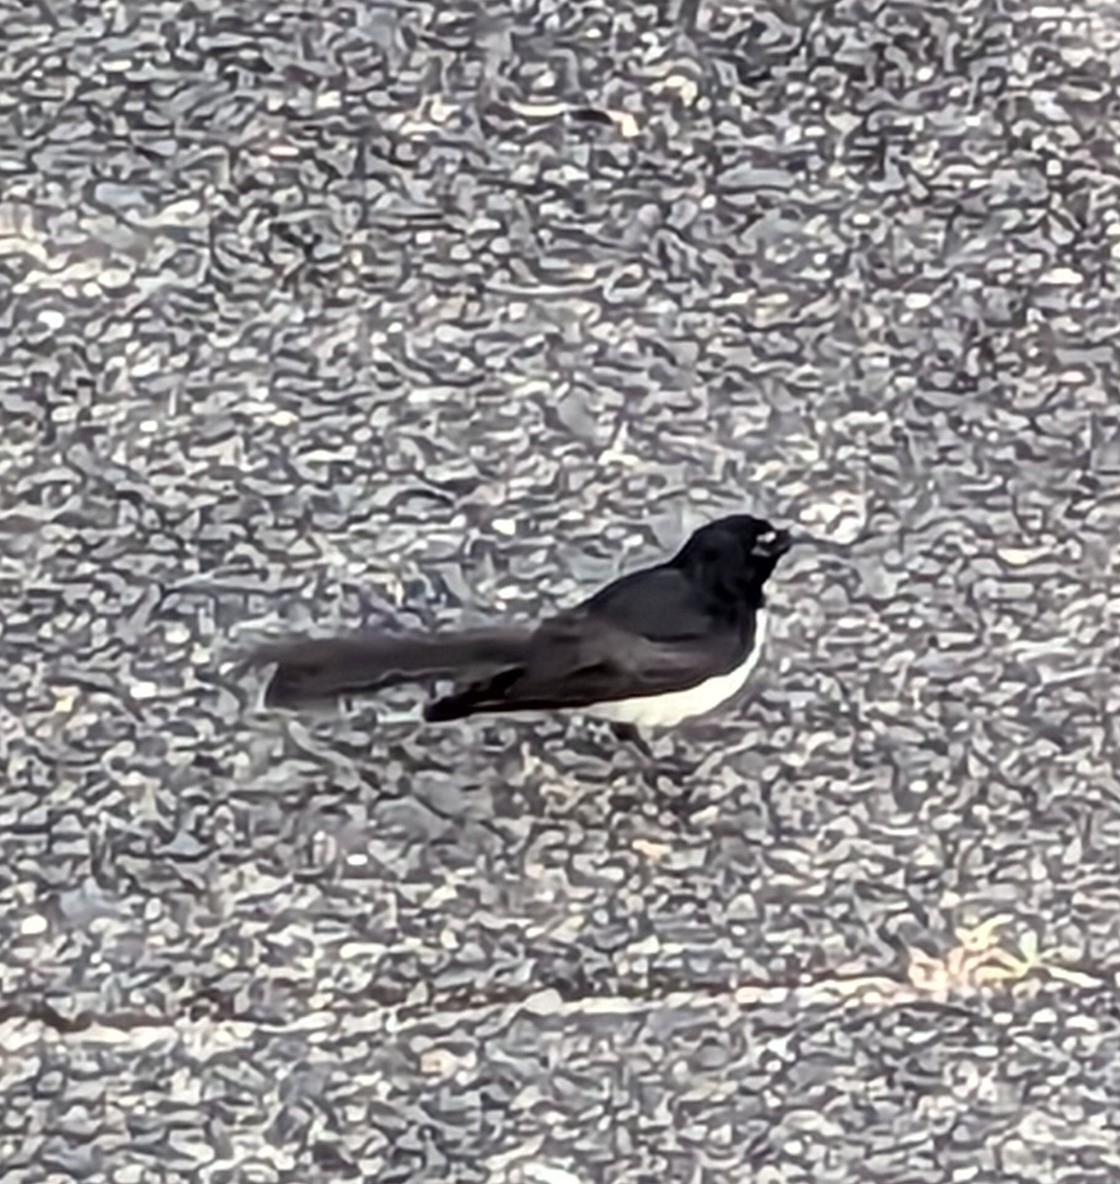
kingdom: Animalia
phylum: Chordata
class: Aves
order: Passeriformes
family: Rhipiduridae
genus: Rhipidura
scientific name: Rhipidura leucophrys
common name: Willie wagtail
